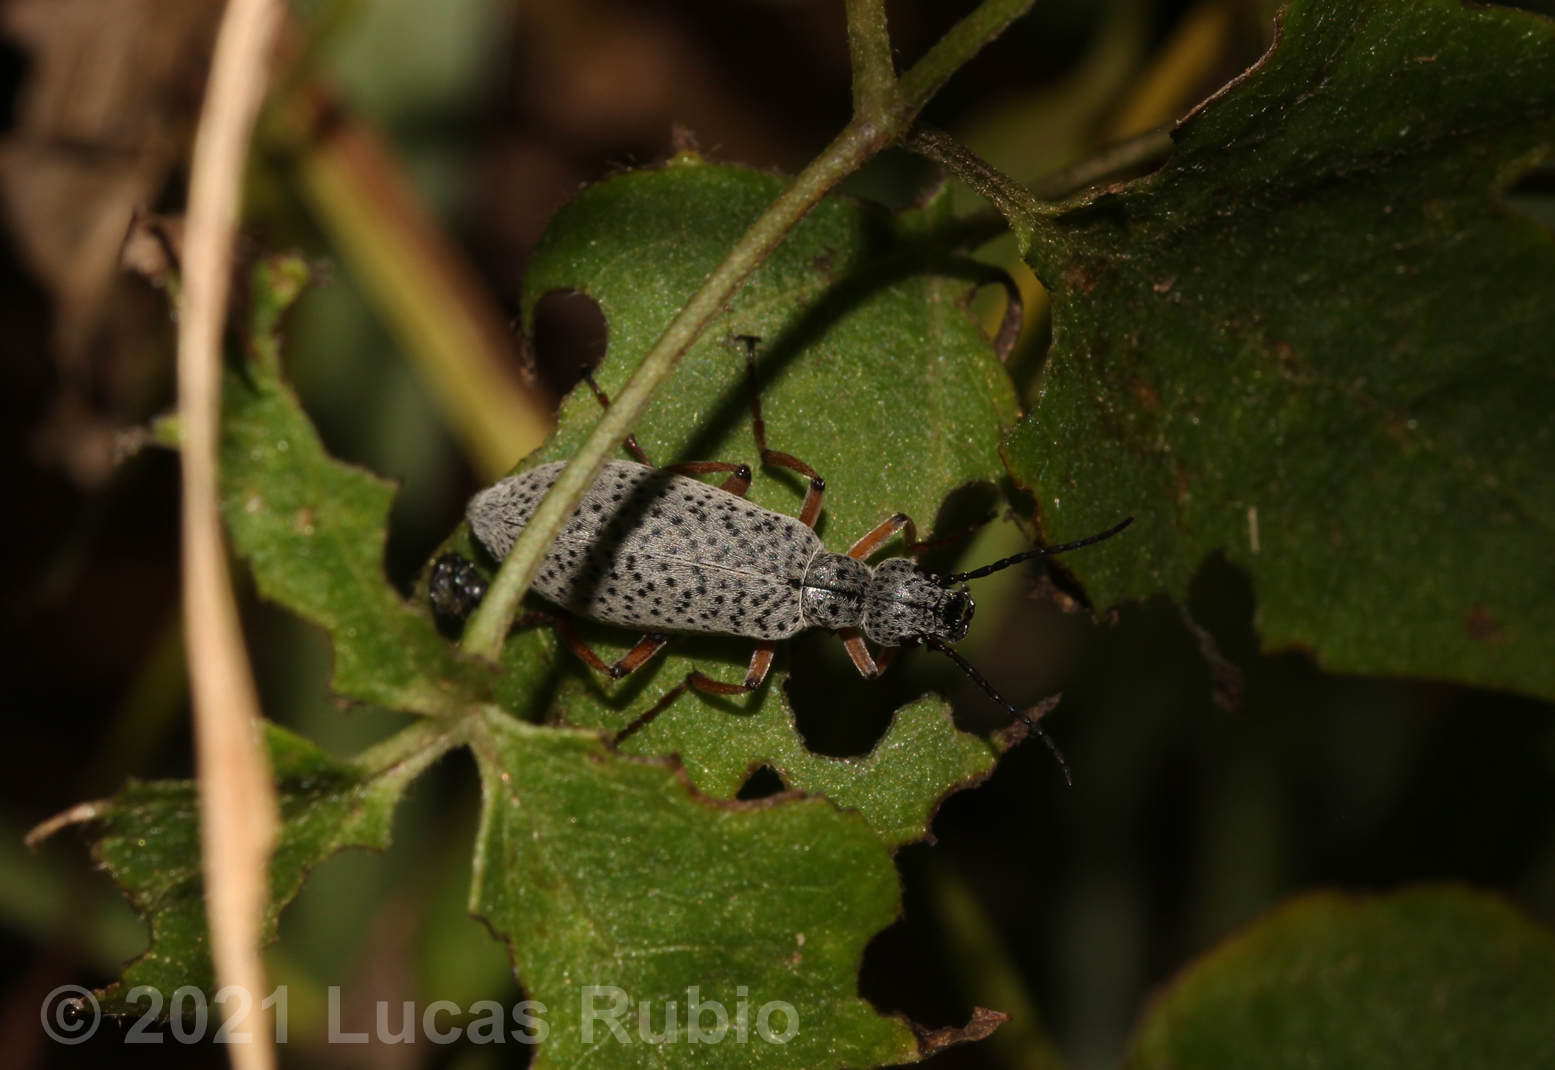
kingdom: Animalia
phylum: Arthropoda
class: Insecta
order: Coleoptera
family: Meloidae
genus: Epicauta
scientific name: Epicauta
